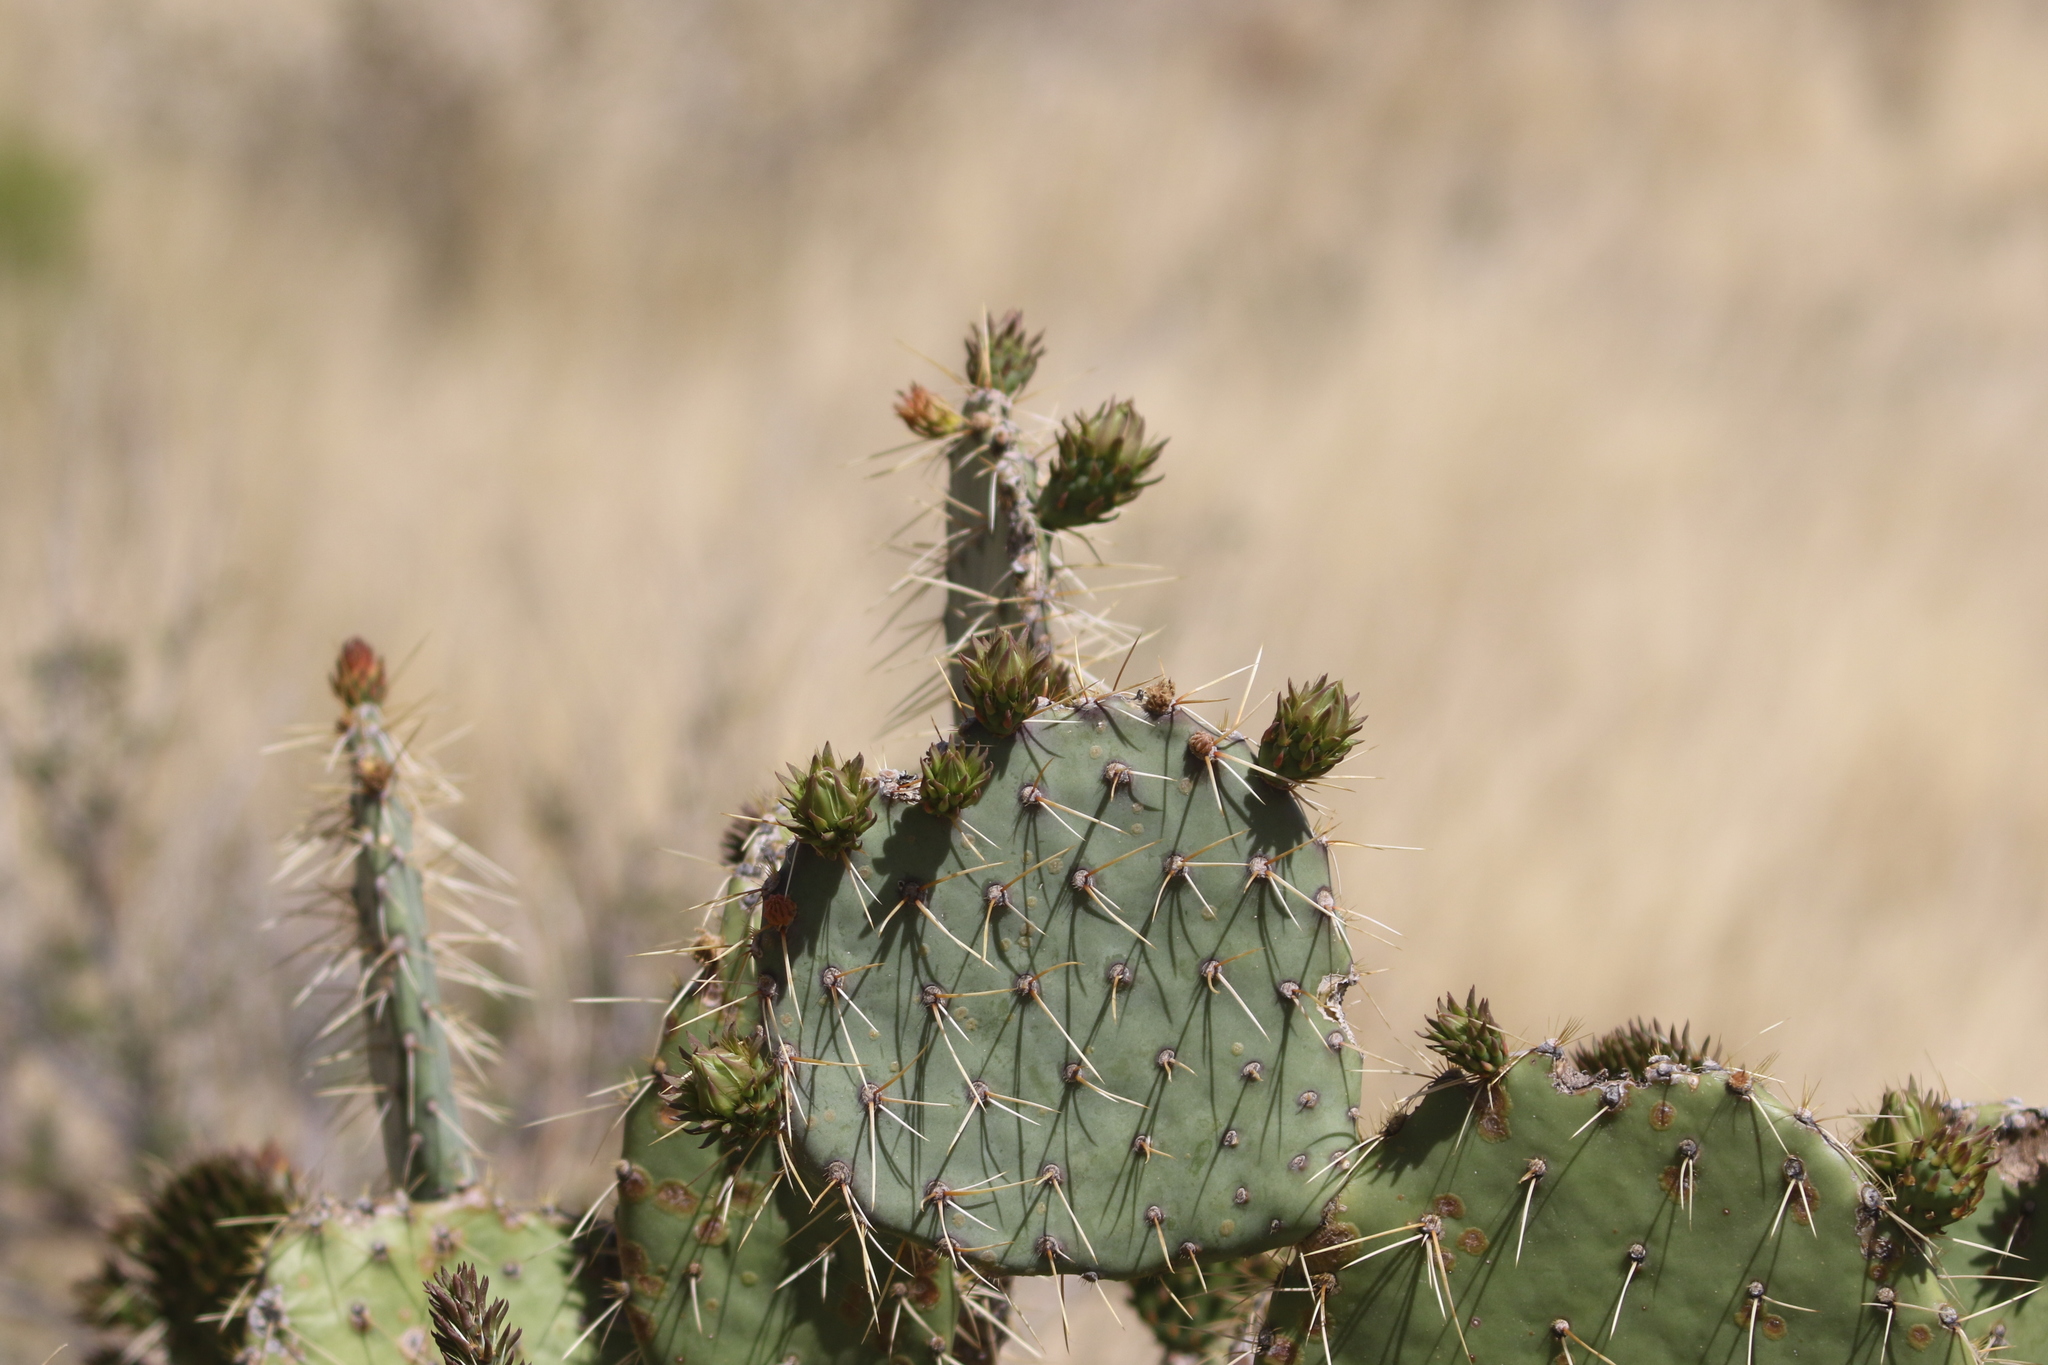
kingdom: Plantae
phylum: Tracheophyta
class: Magnoliopsida
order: Caryophyllales
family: Cactaceae
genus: Opuntia
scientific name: Opuntia phaeacantha
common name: New mexico prickly-pear
